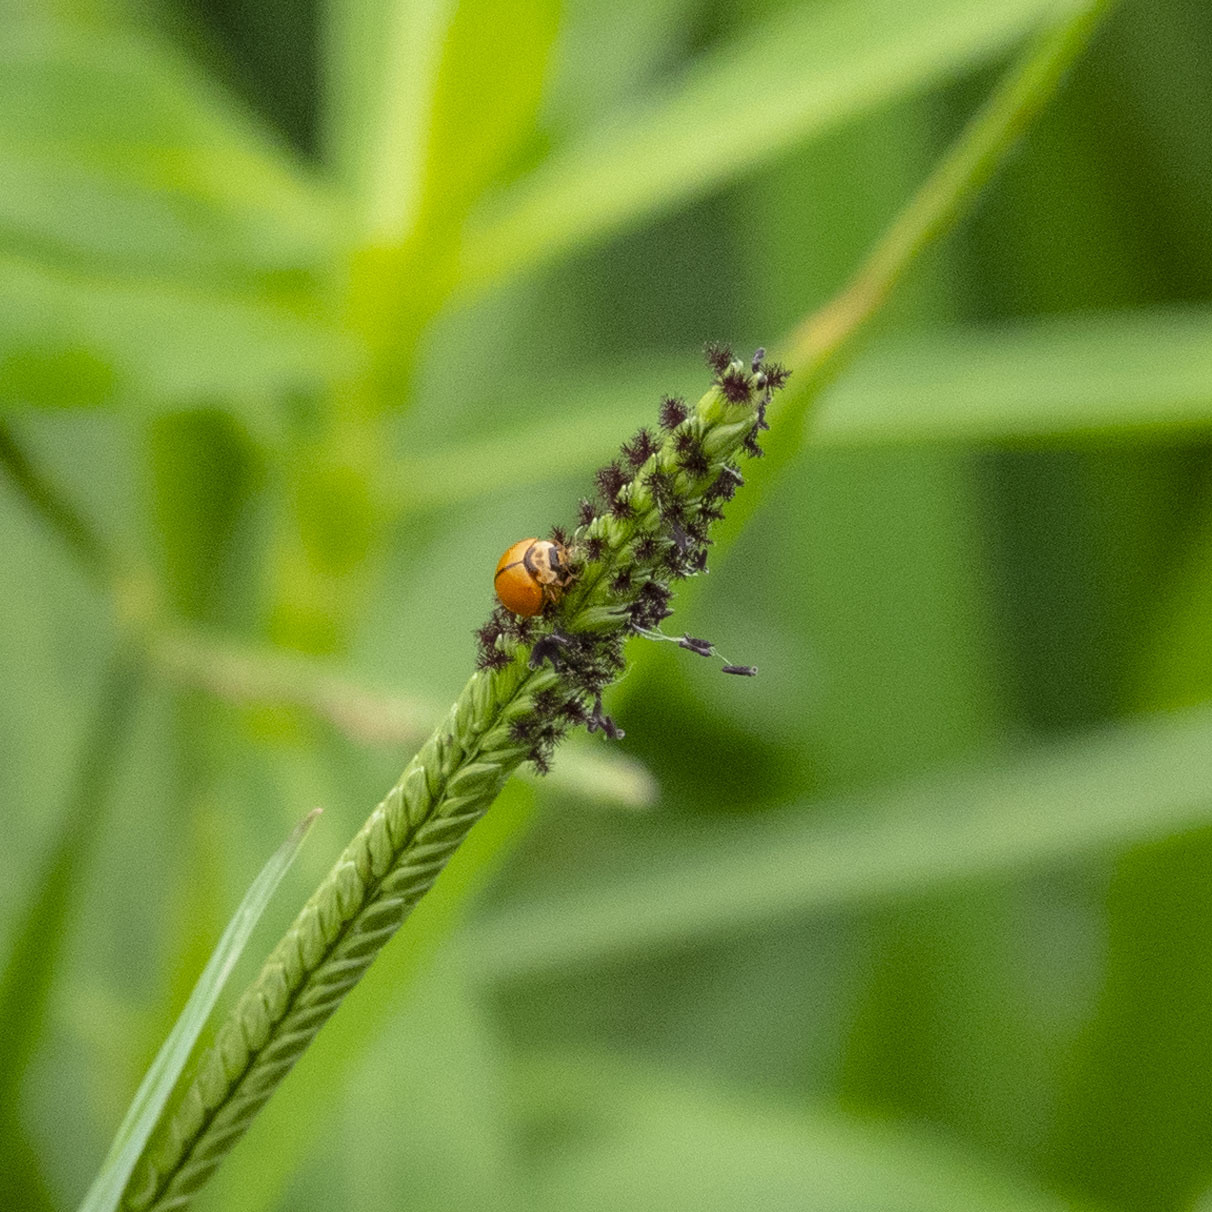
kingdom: Animalia
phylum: Arthropoda
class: Insecta
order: Coleoptera
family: Coccinellidae
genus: Micraspis
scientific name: Micraspis discolor
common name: Lady beetle
